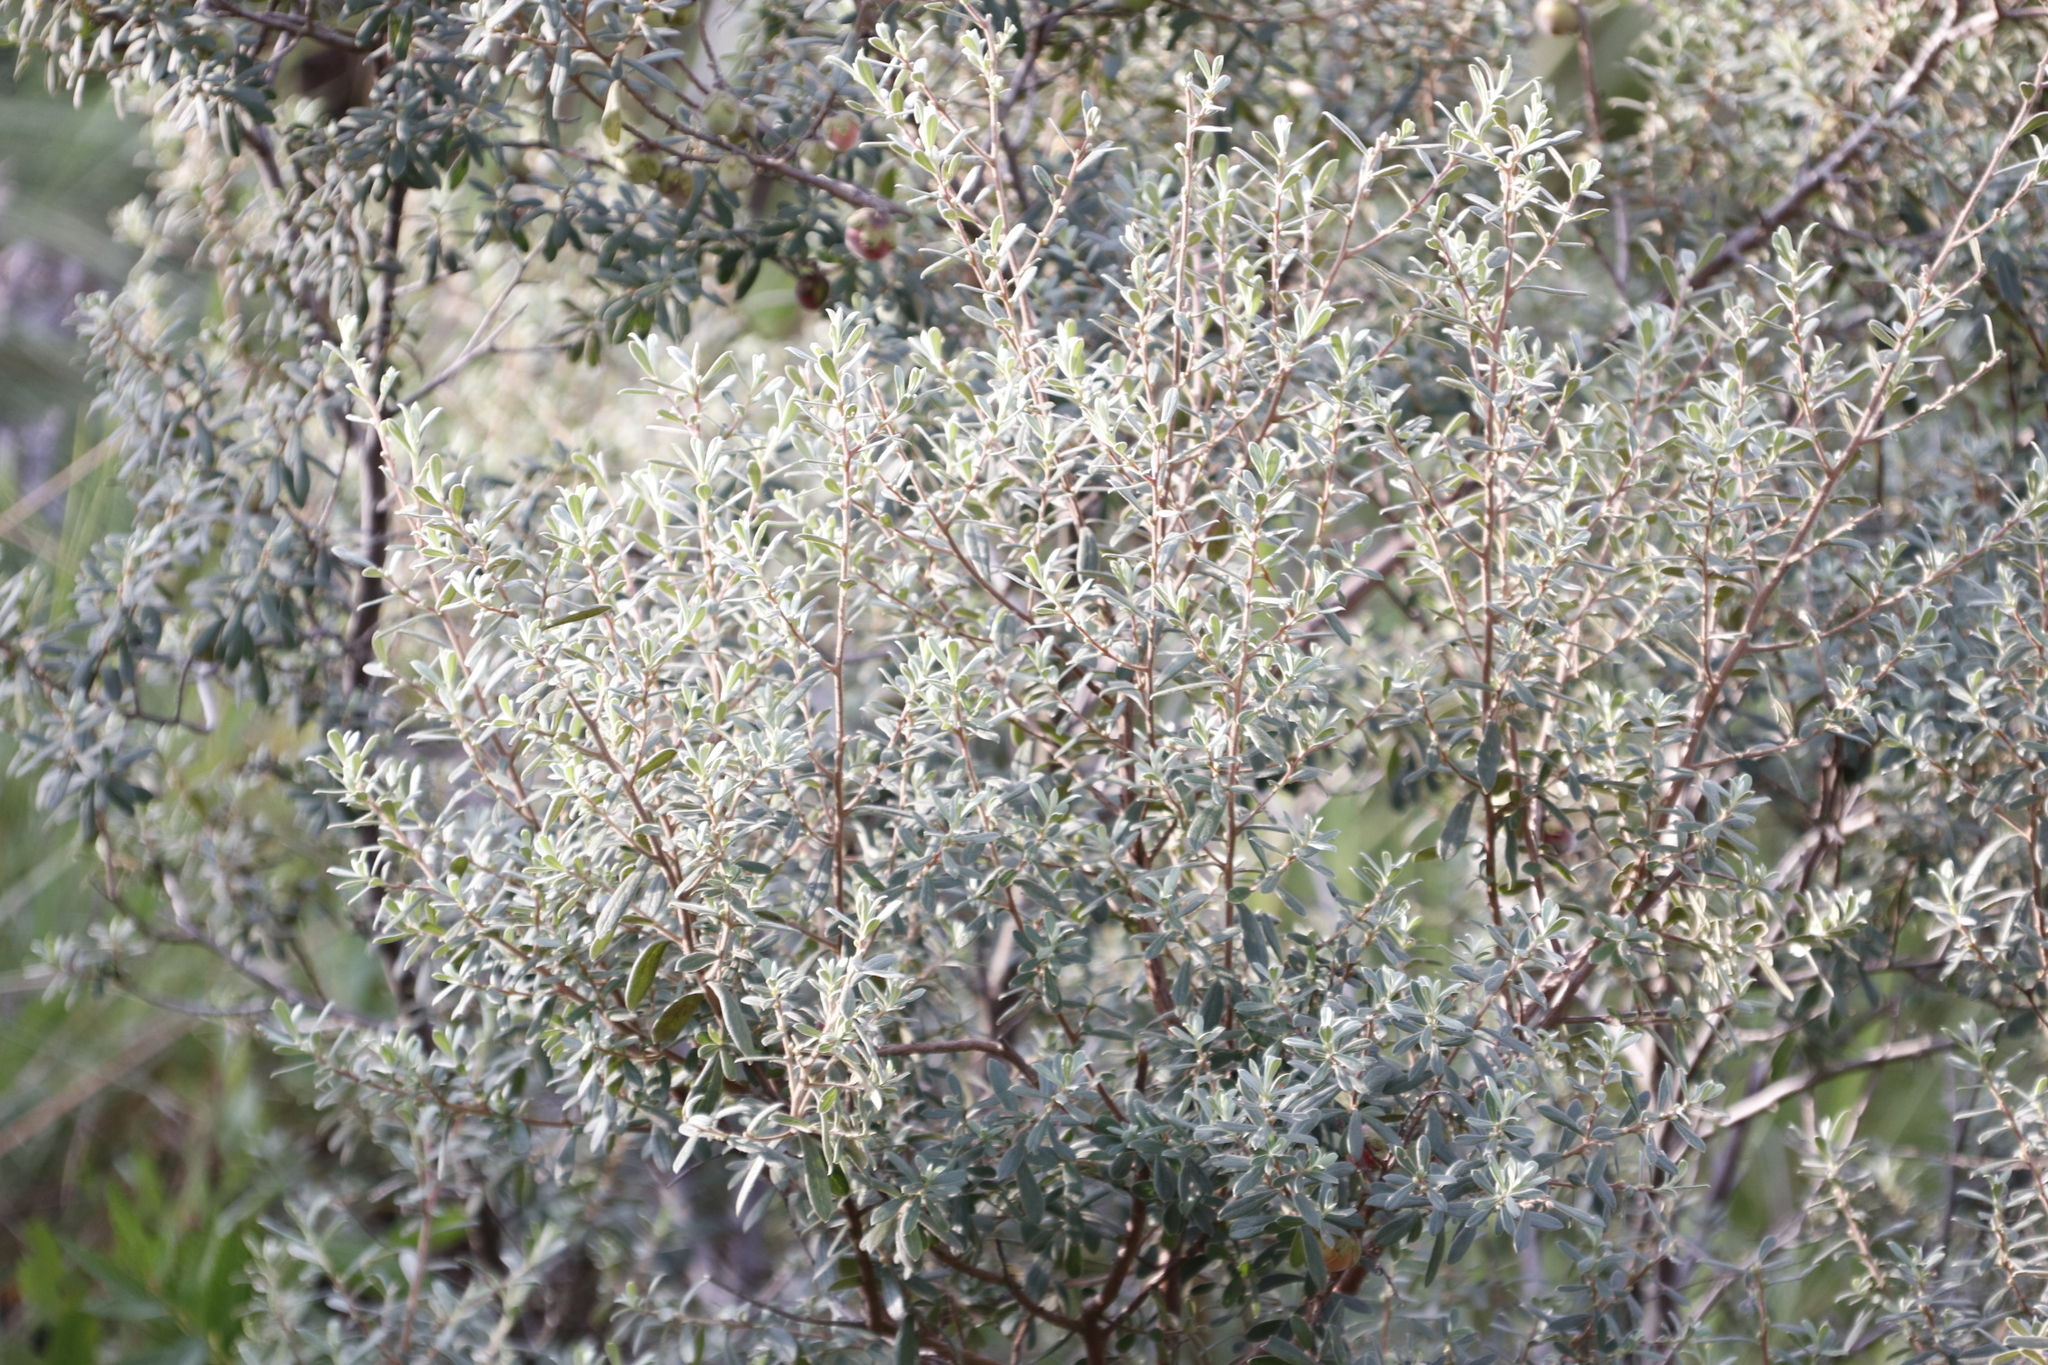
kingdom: Plantae
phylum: Tracheophyta
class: Magnoliopsida
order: Ericales
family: Ebenaceae
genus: Diospyros
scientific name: Diospyros pubescens
